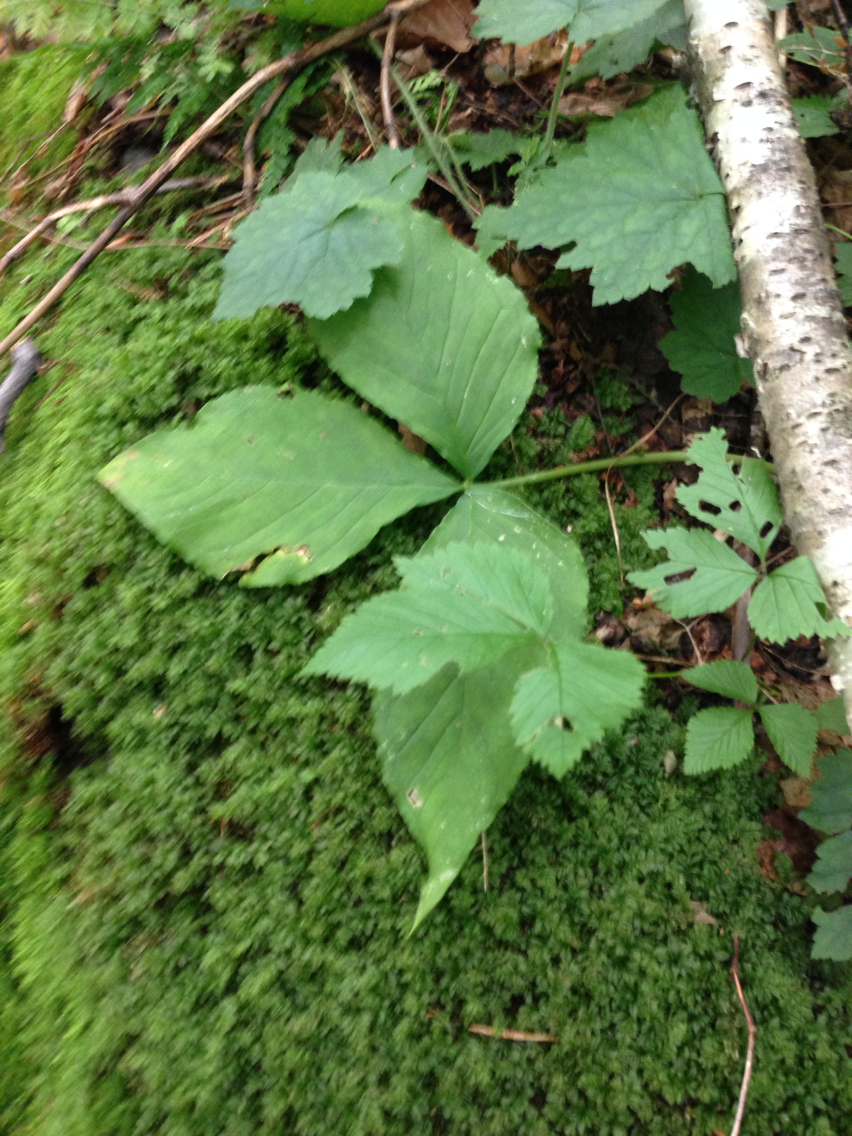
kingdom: Plantae
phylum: Tracheophyta
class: Liliopsida
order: Alismatales
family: Araceae
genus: Arisaema
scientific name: Arisaema triphyllum
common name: Jack-in-the-pulpit
